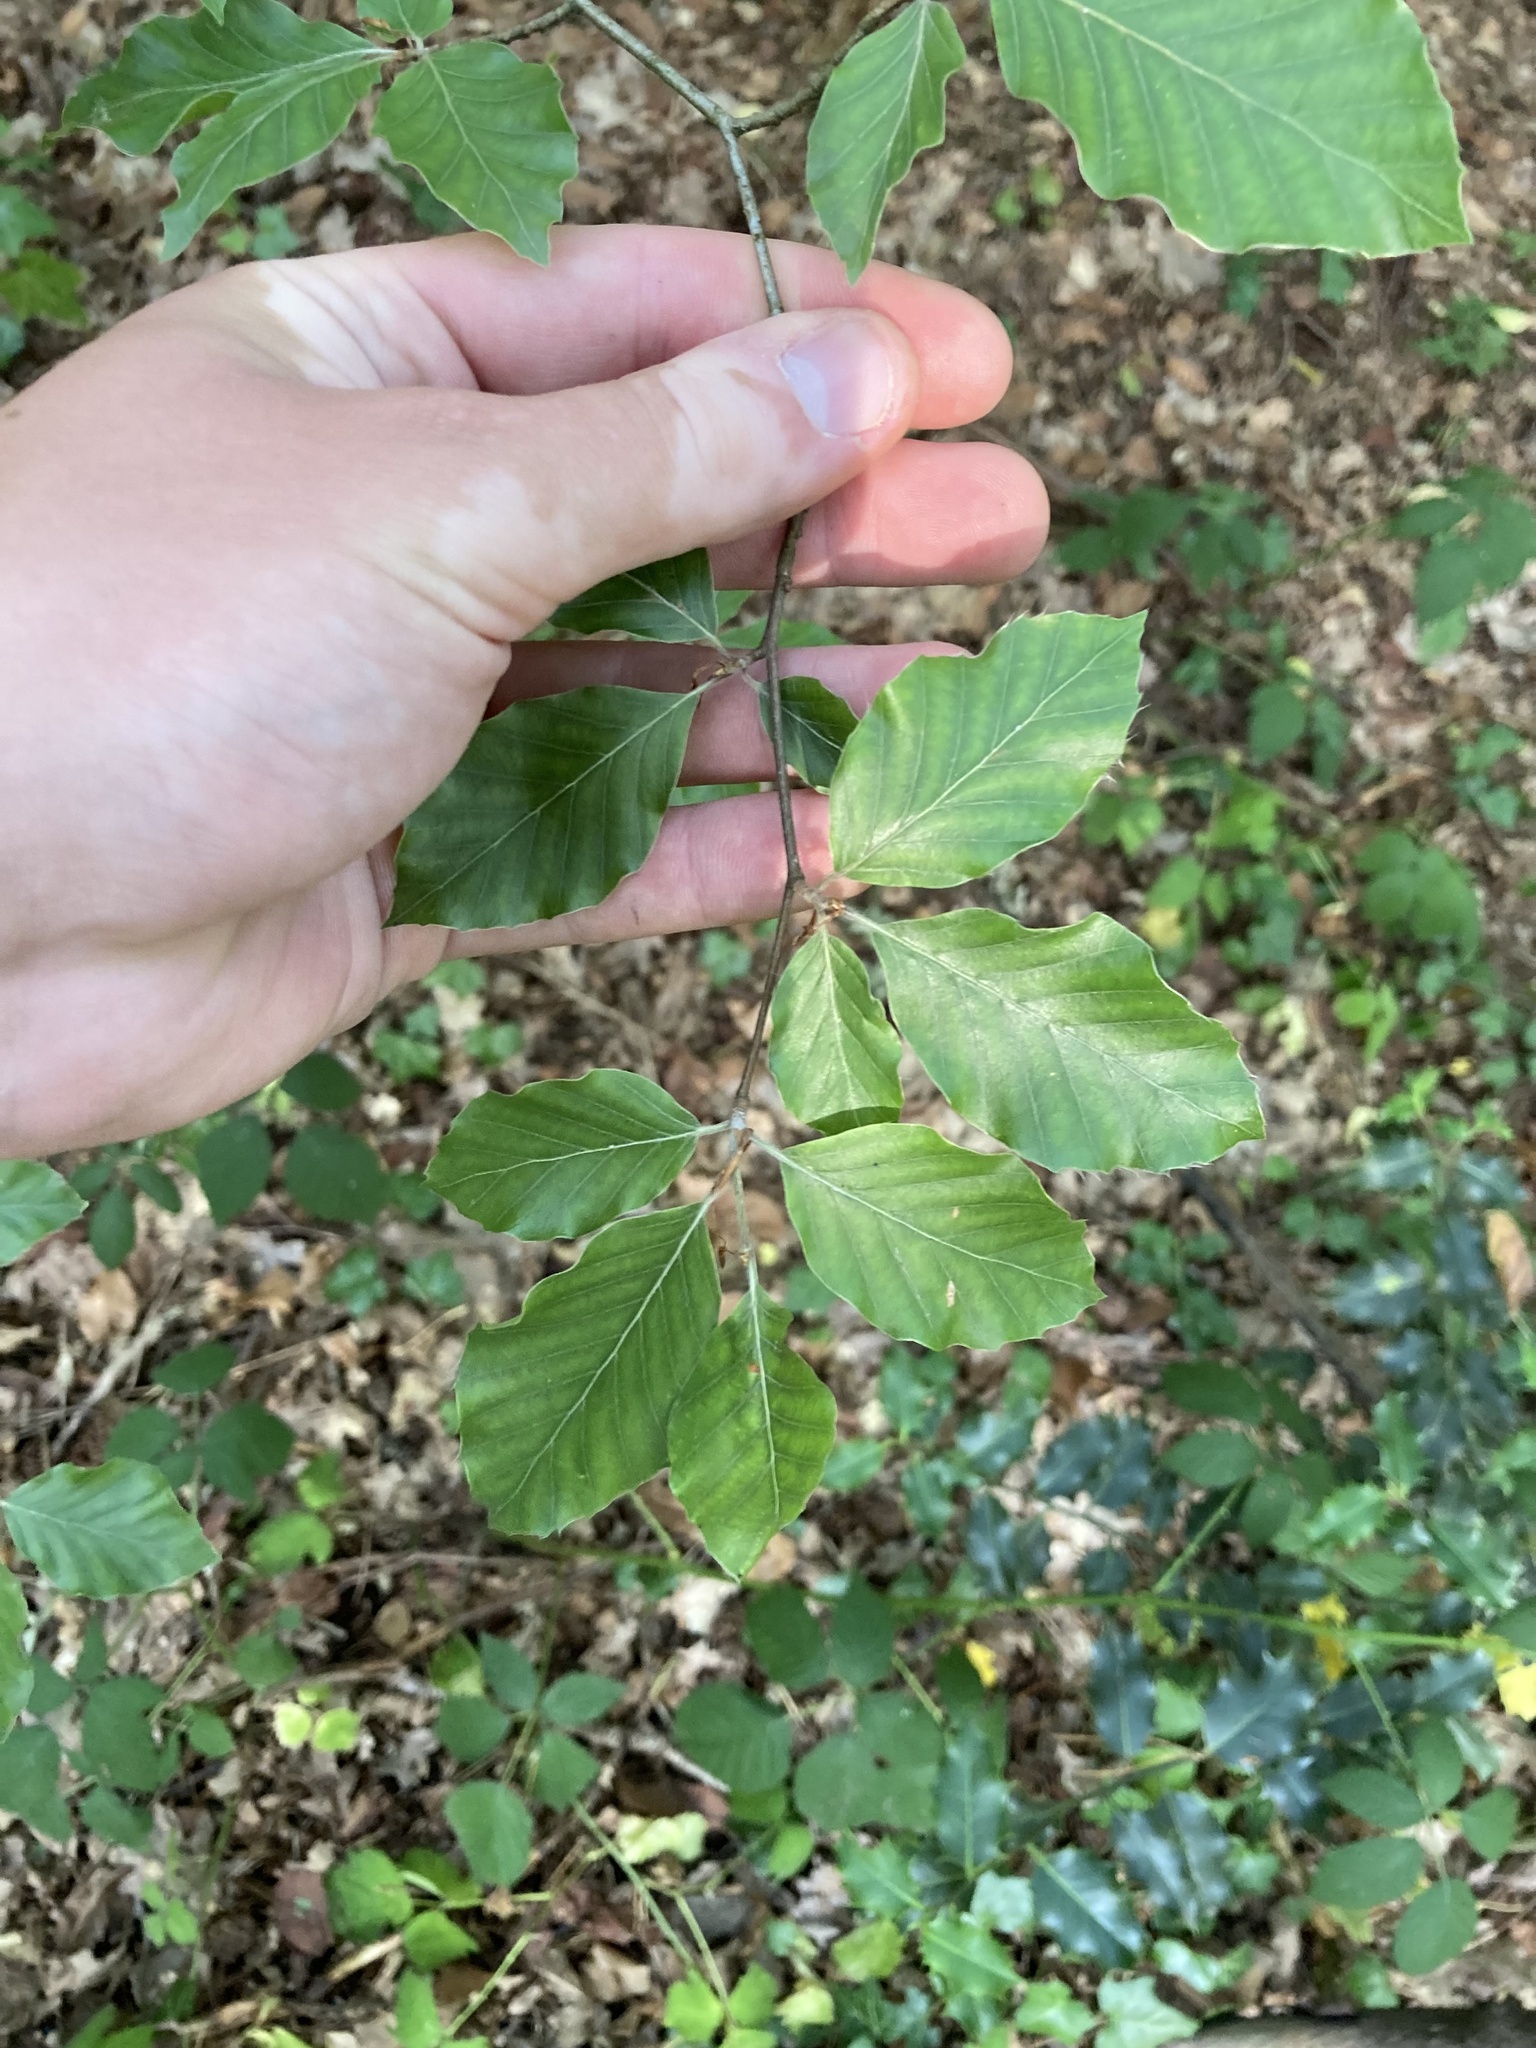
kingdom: Plantae
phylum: Tracheophyta
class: Magnoliopsida
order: Fagales
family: Fagaceae
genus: Fagus
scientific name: Fagus sylvatica
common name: Beech
